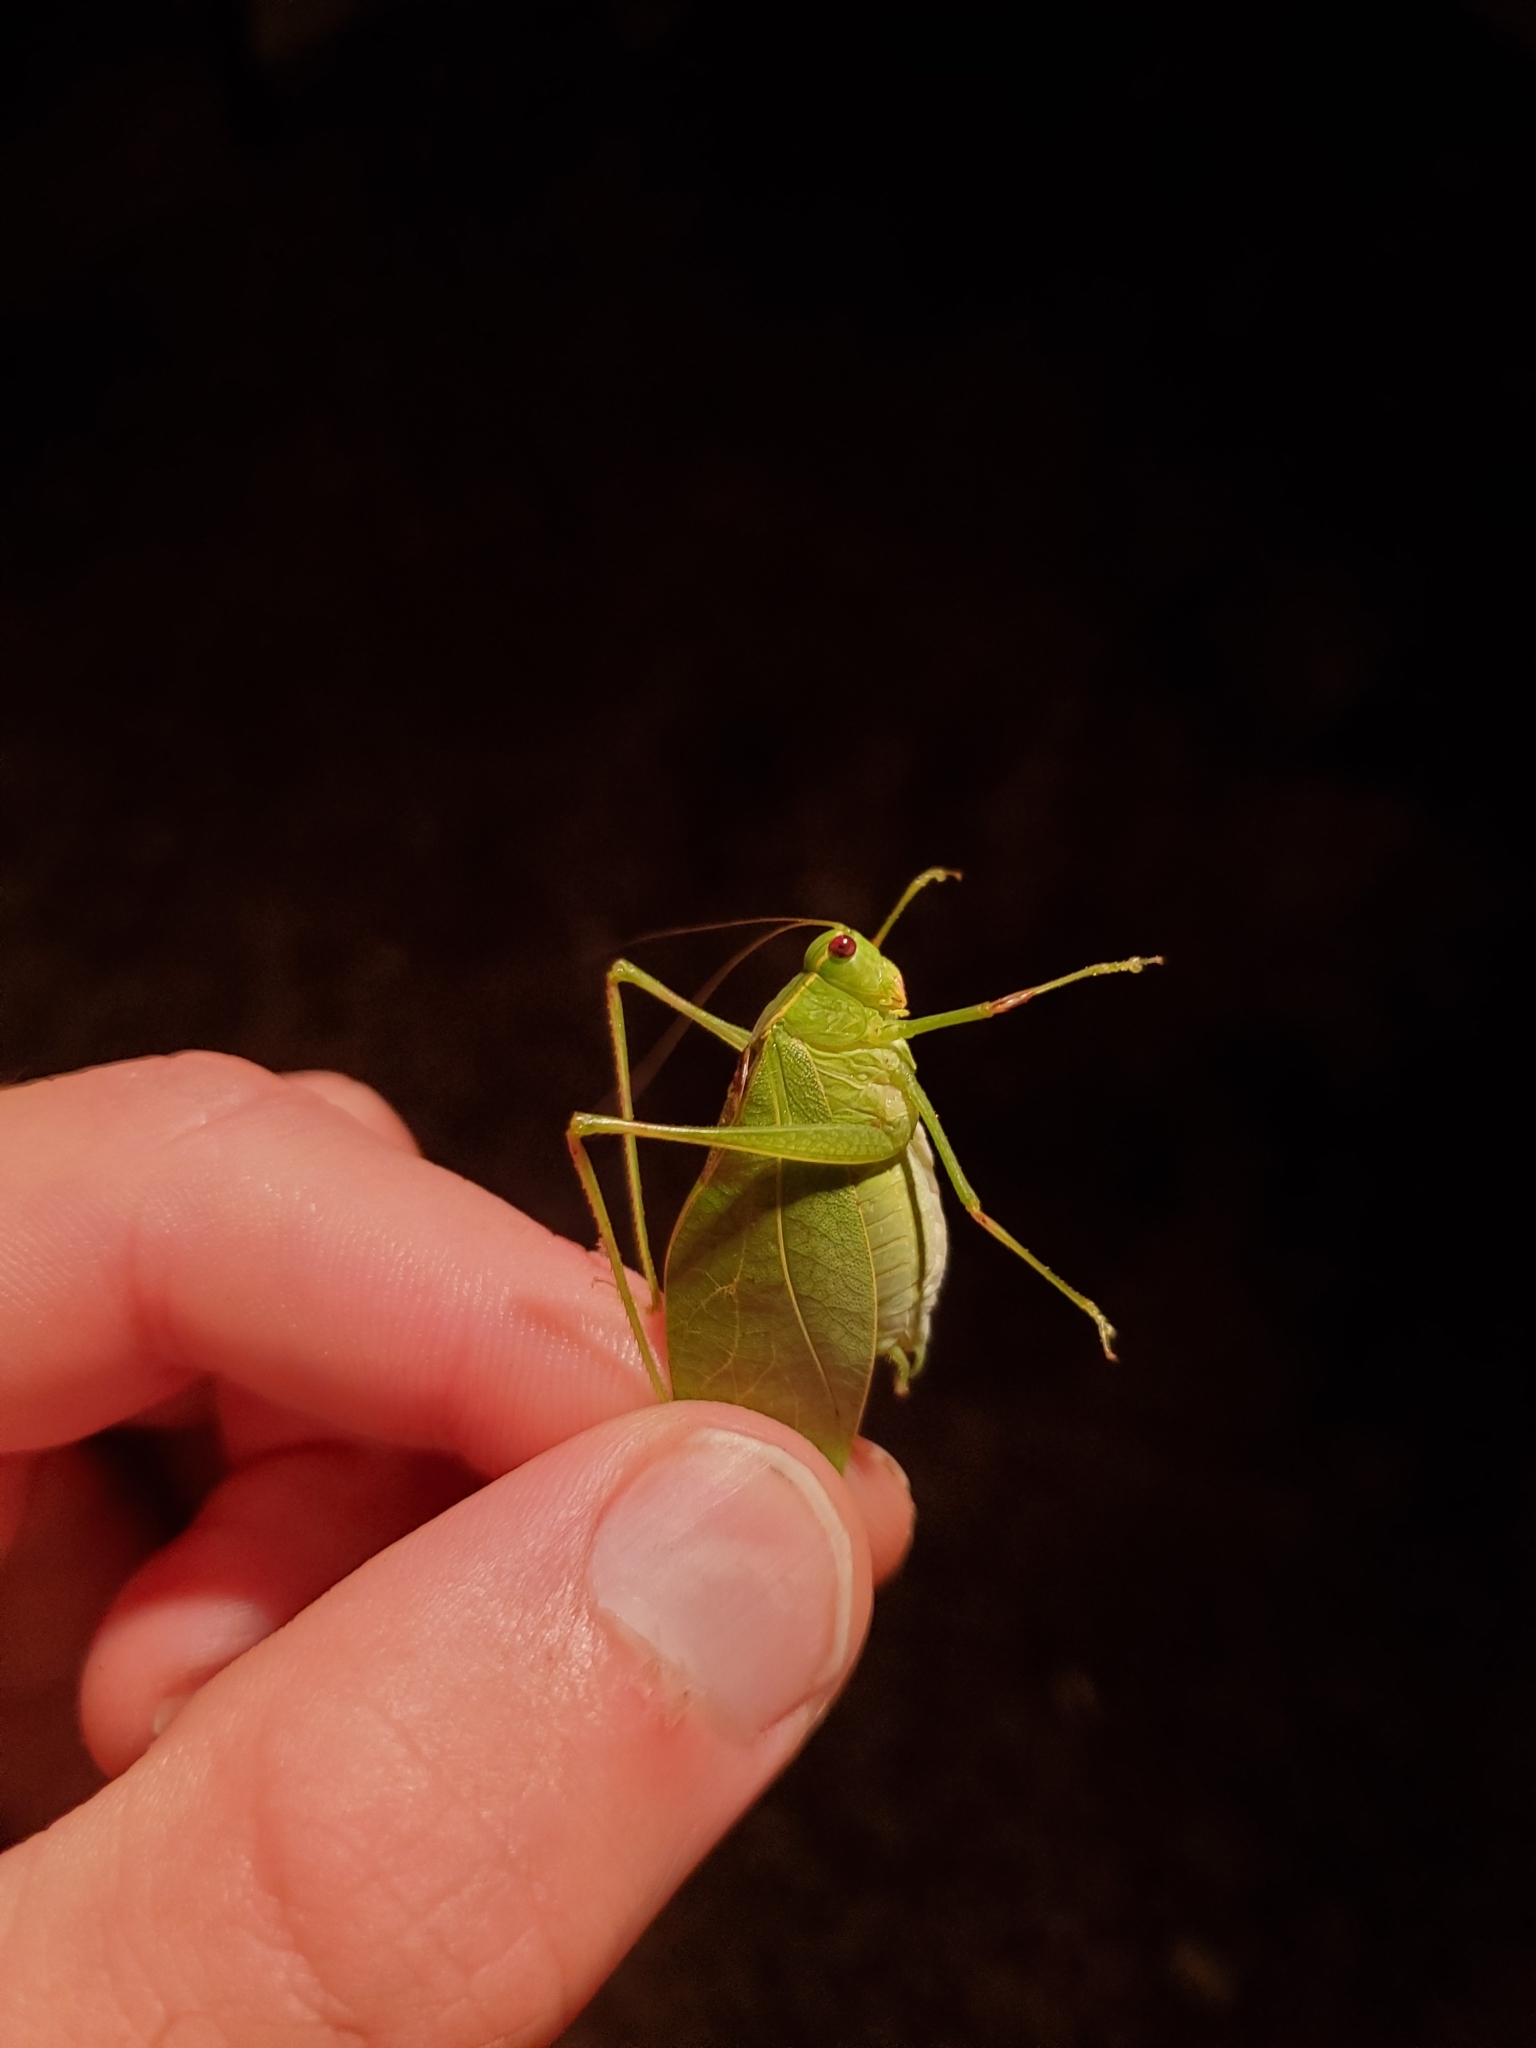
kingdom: Animalia
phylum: Arthropoda
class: Insecta
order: Orthoptera
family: Tettigoniidae
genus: Microcentrum
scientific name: Microcentrum retinerve
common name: Angular-winged katydid
